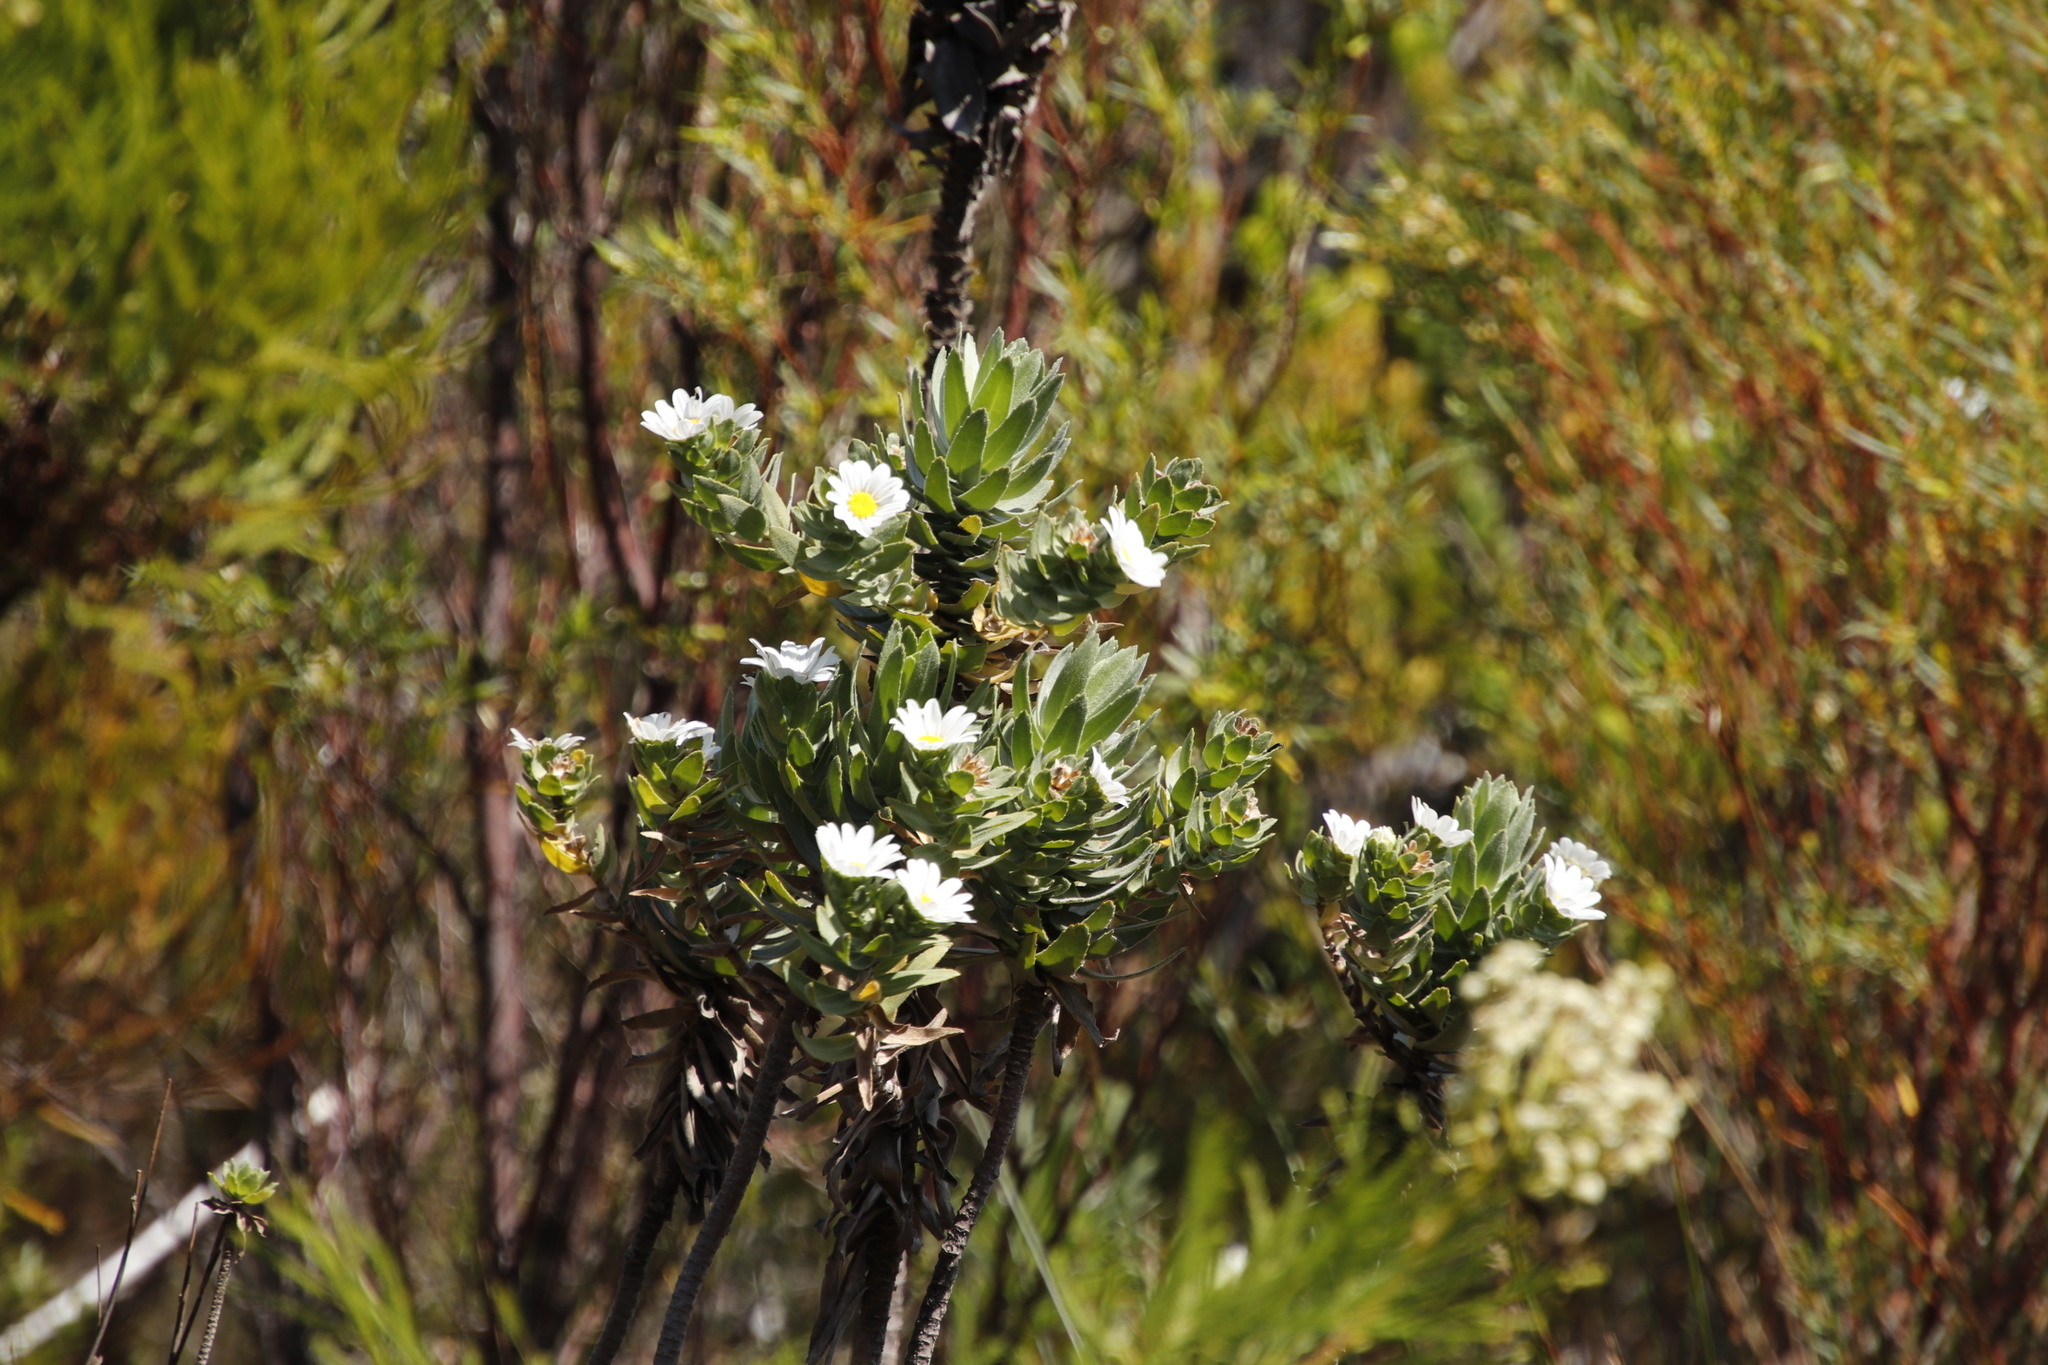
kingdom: Plantae
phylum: Tracheophyta
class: Magnoliopsida
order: Asterales
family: Asteraceae
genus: Osmitopsis
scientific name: Osmitopsis asteriscoides
